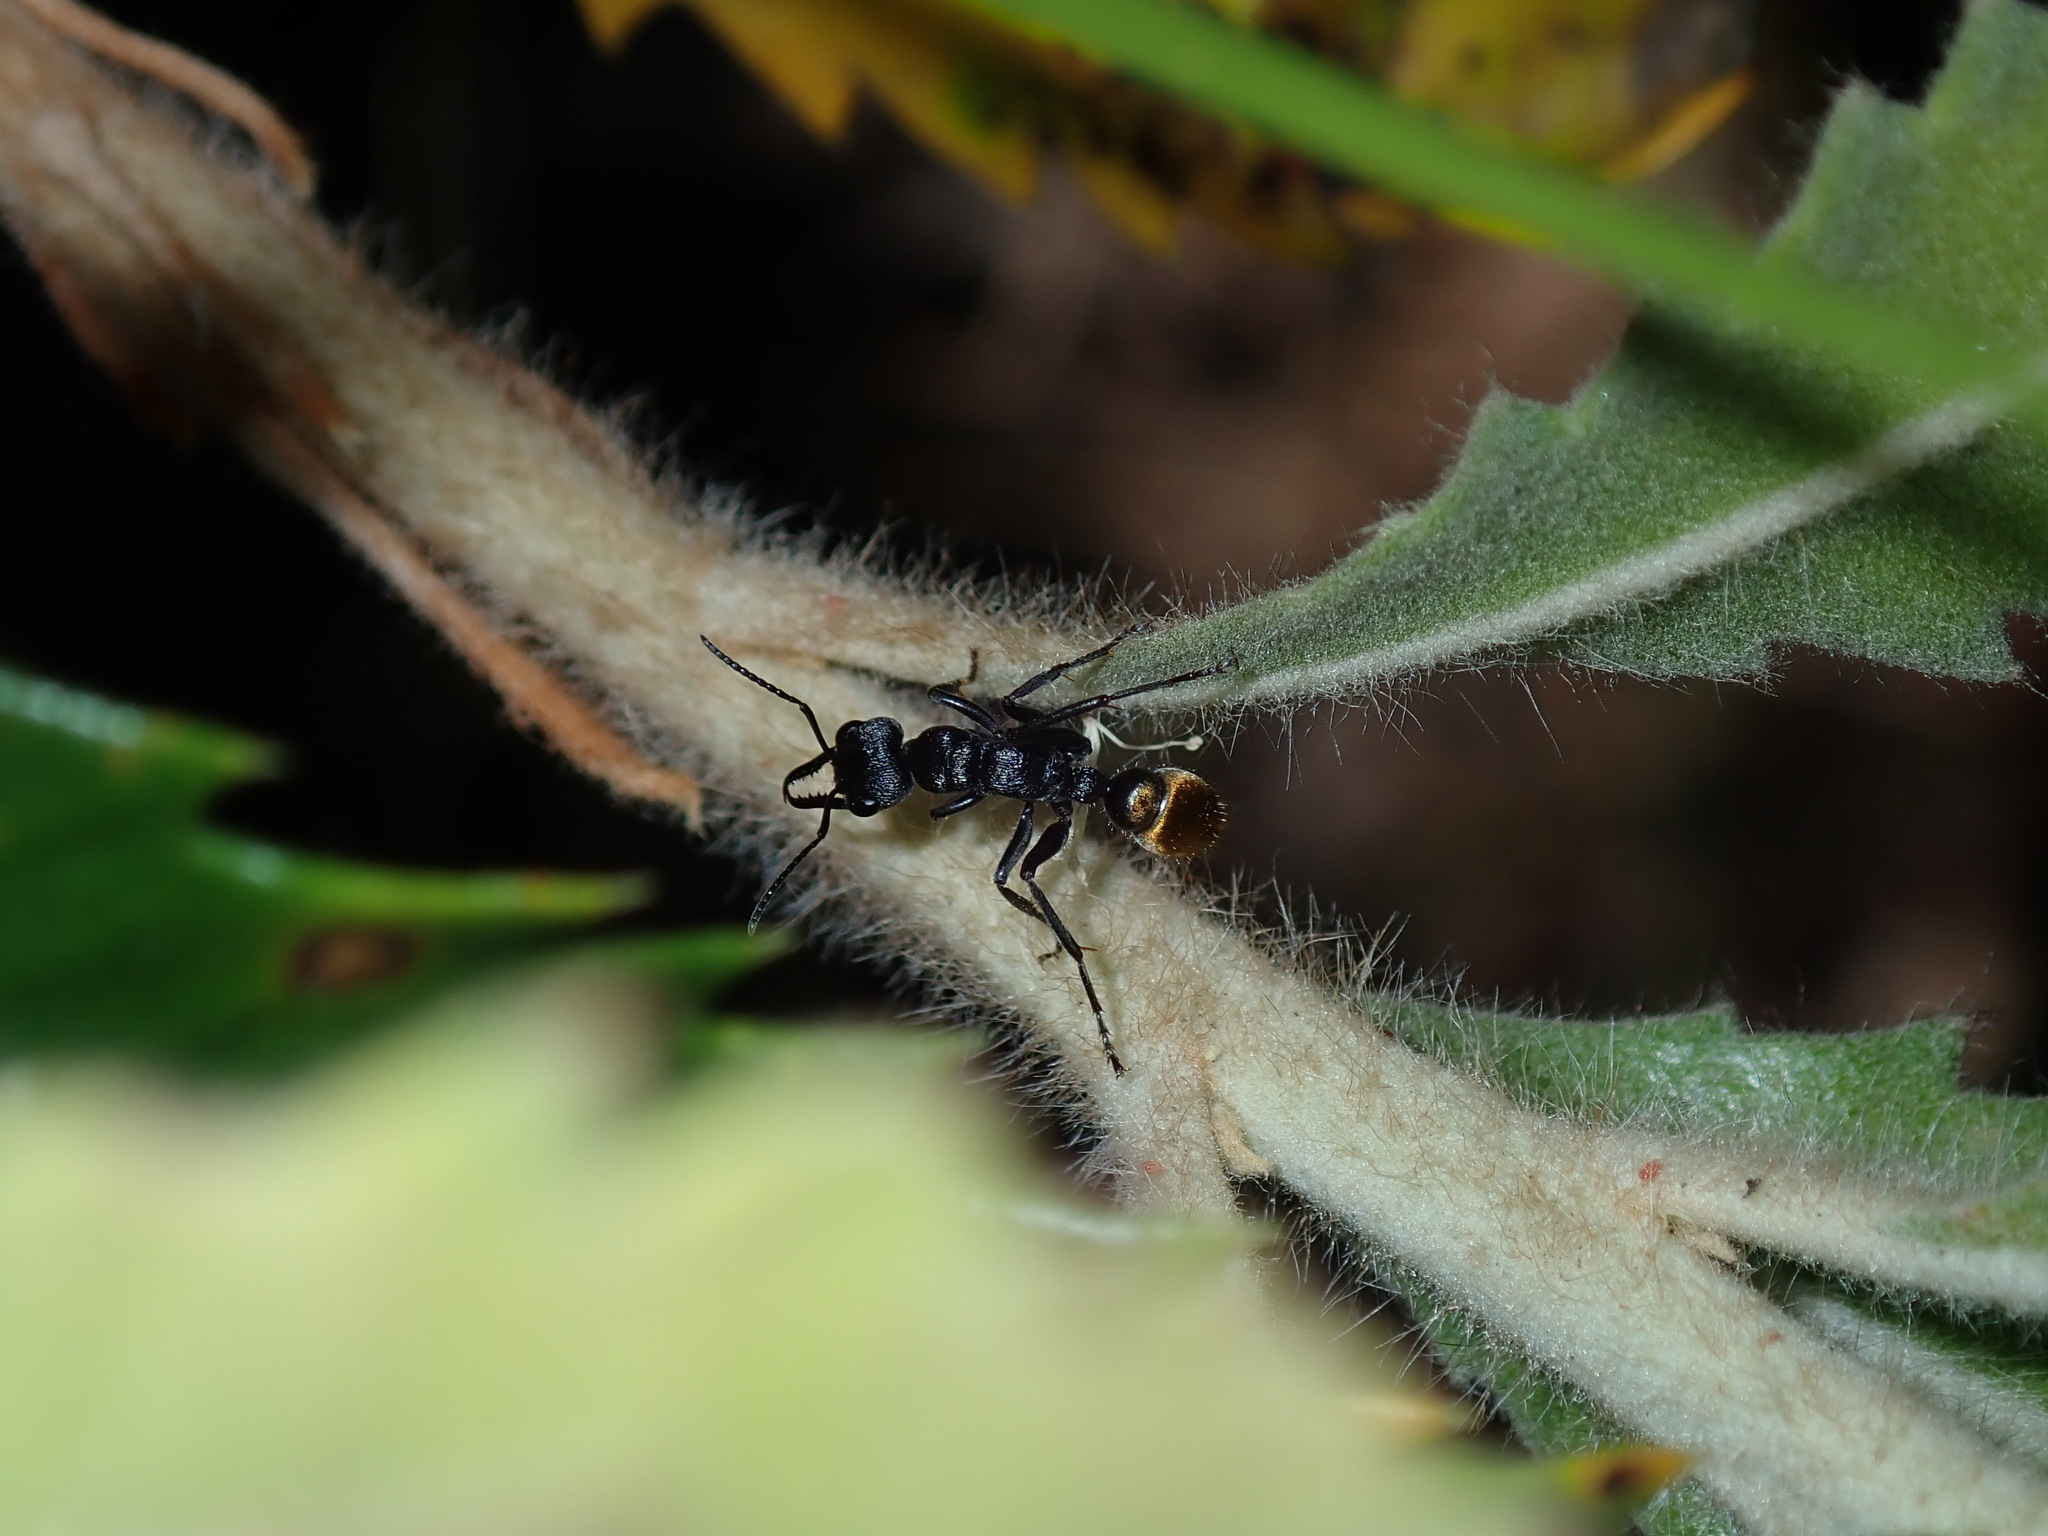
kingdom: Animalia
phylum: Arthropoda
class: Insecta
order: Hymenoptera
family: Formicidae
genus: Myrmecia
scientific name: Myrmecia queenslandica
